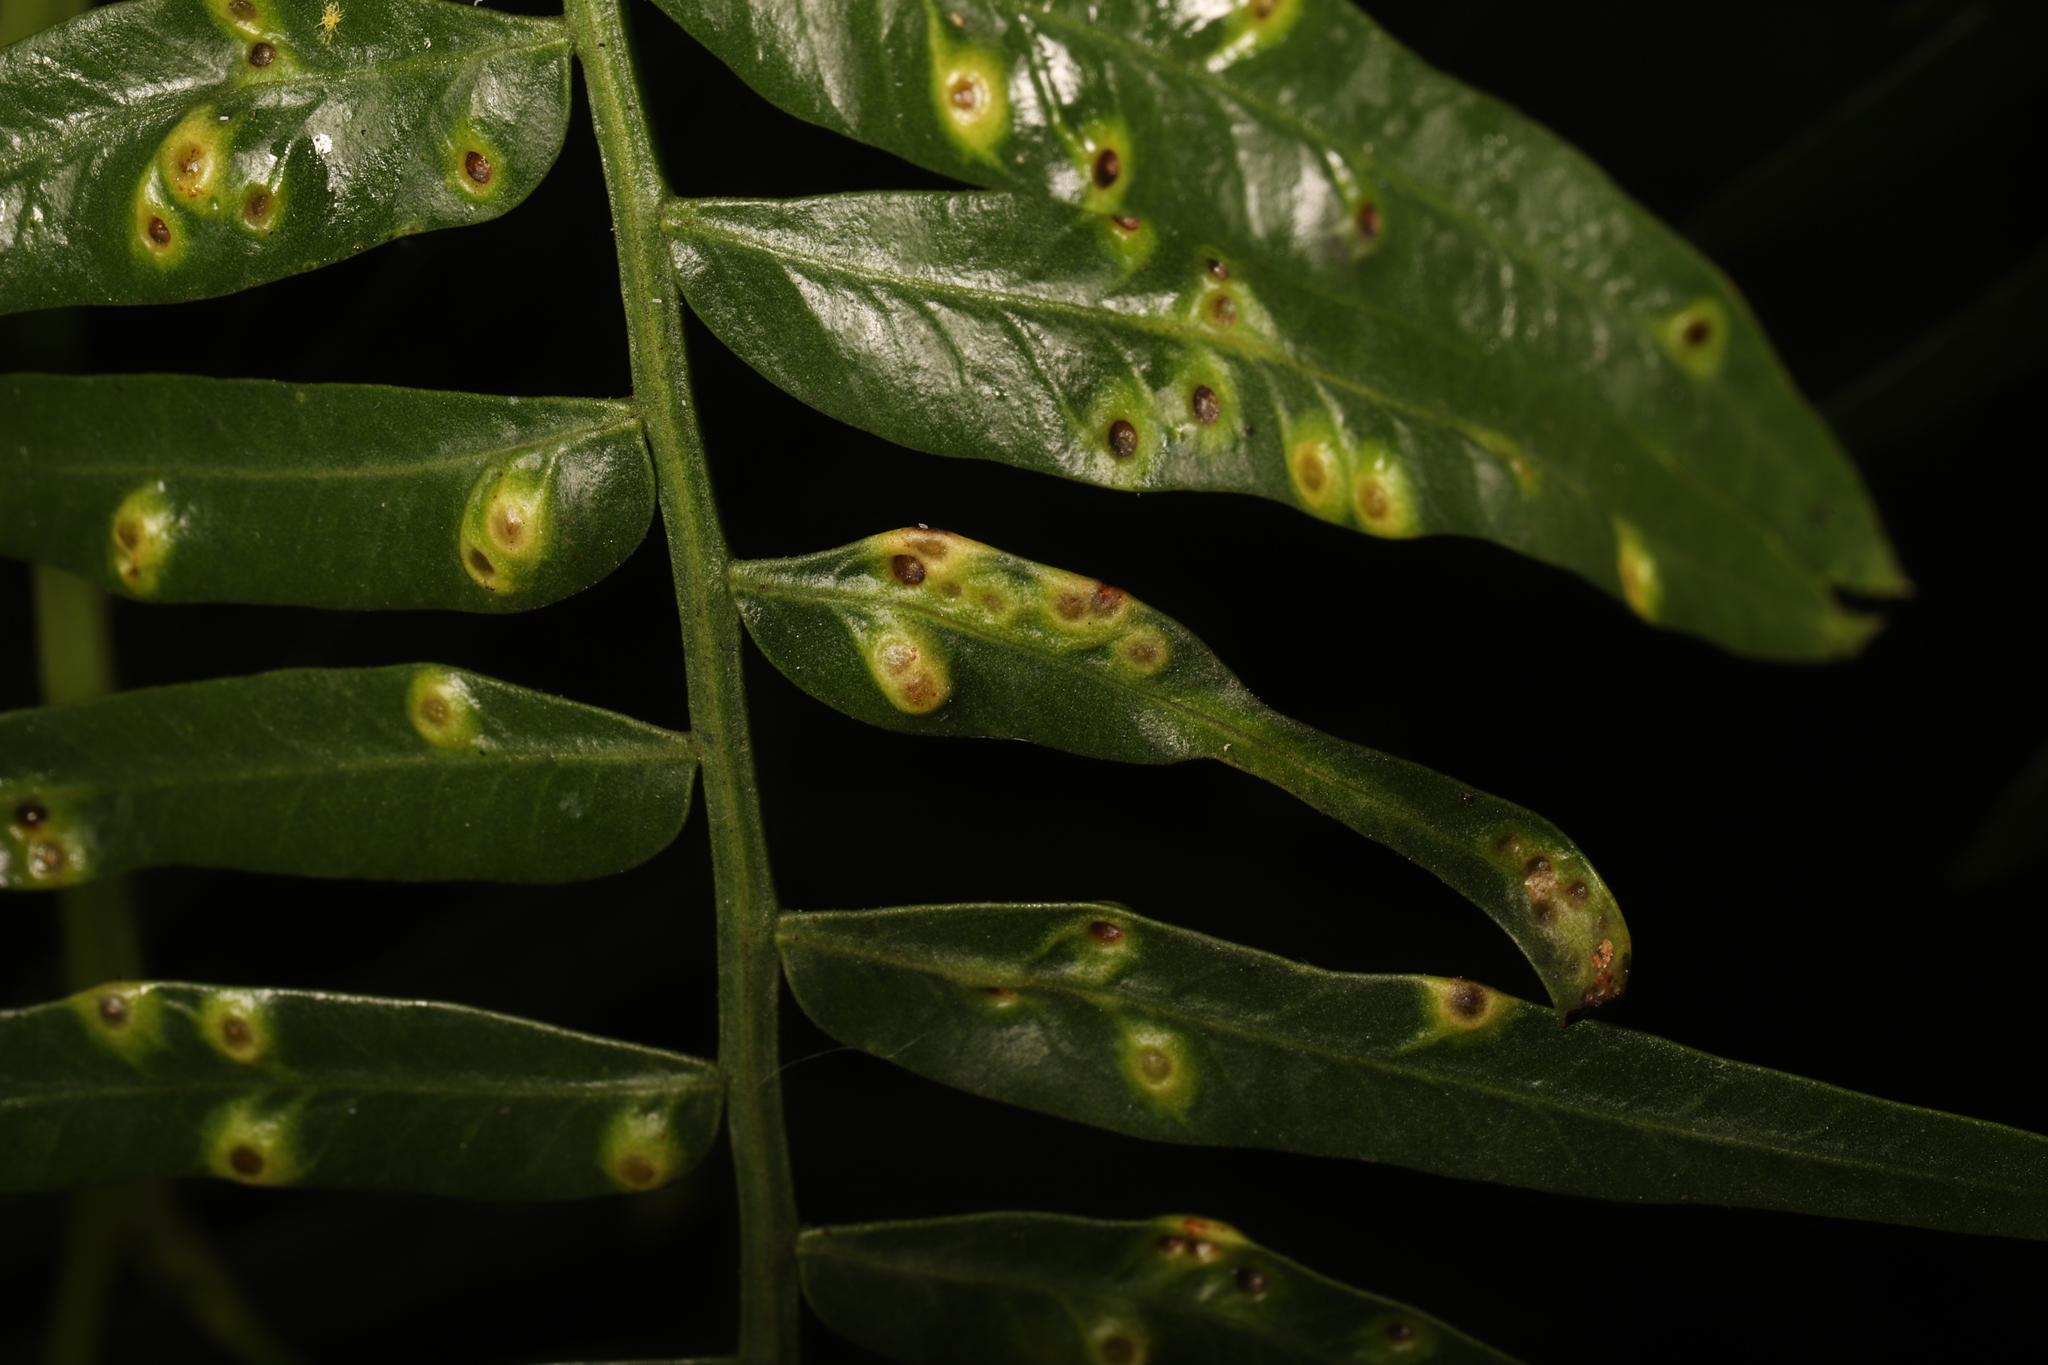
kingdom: Animalia
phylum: Arthropoda
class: Insecta
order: Hemiptera
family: Calophyidae
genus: Calophya
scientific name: Calophya schini
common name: Pepper tree psyllid
